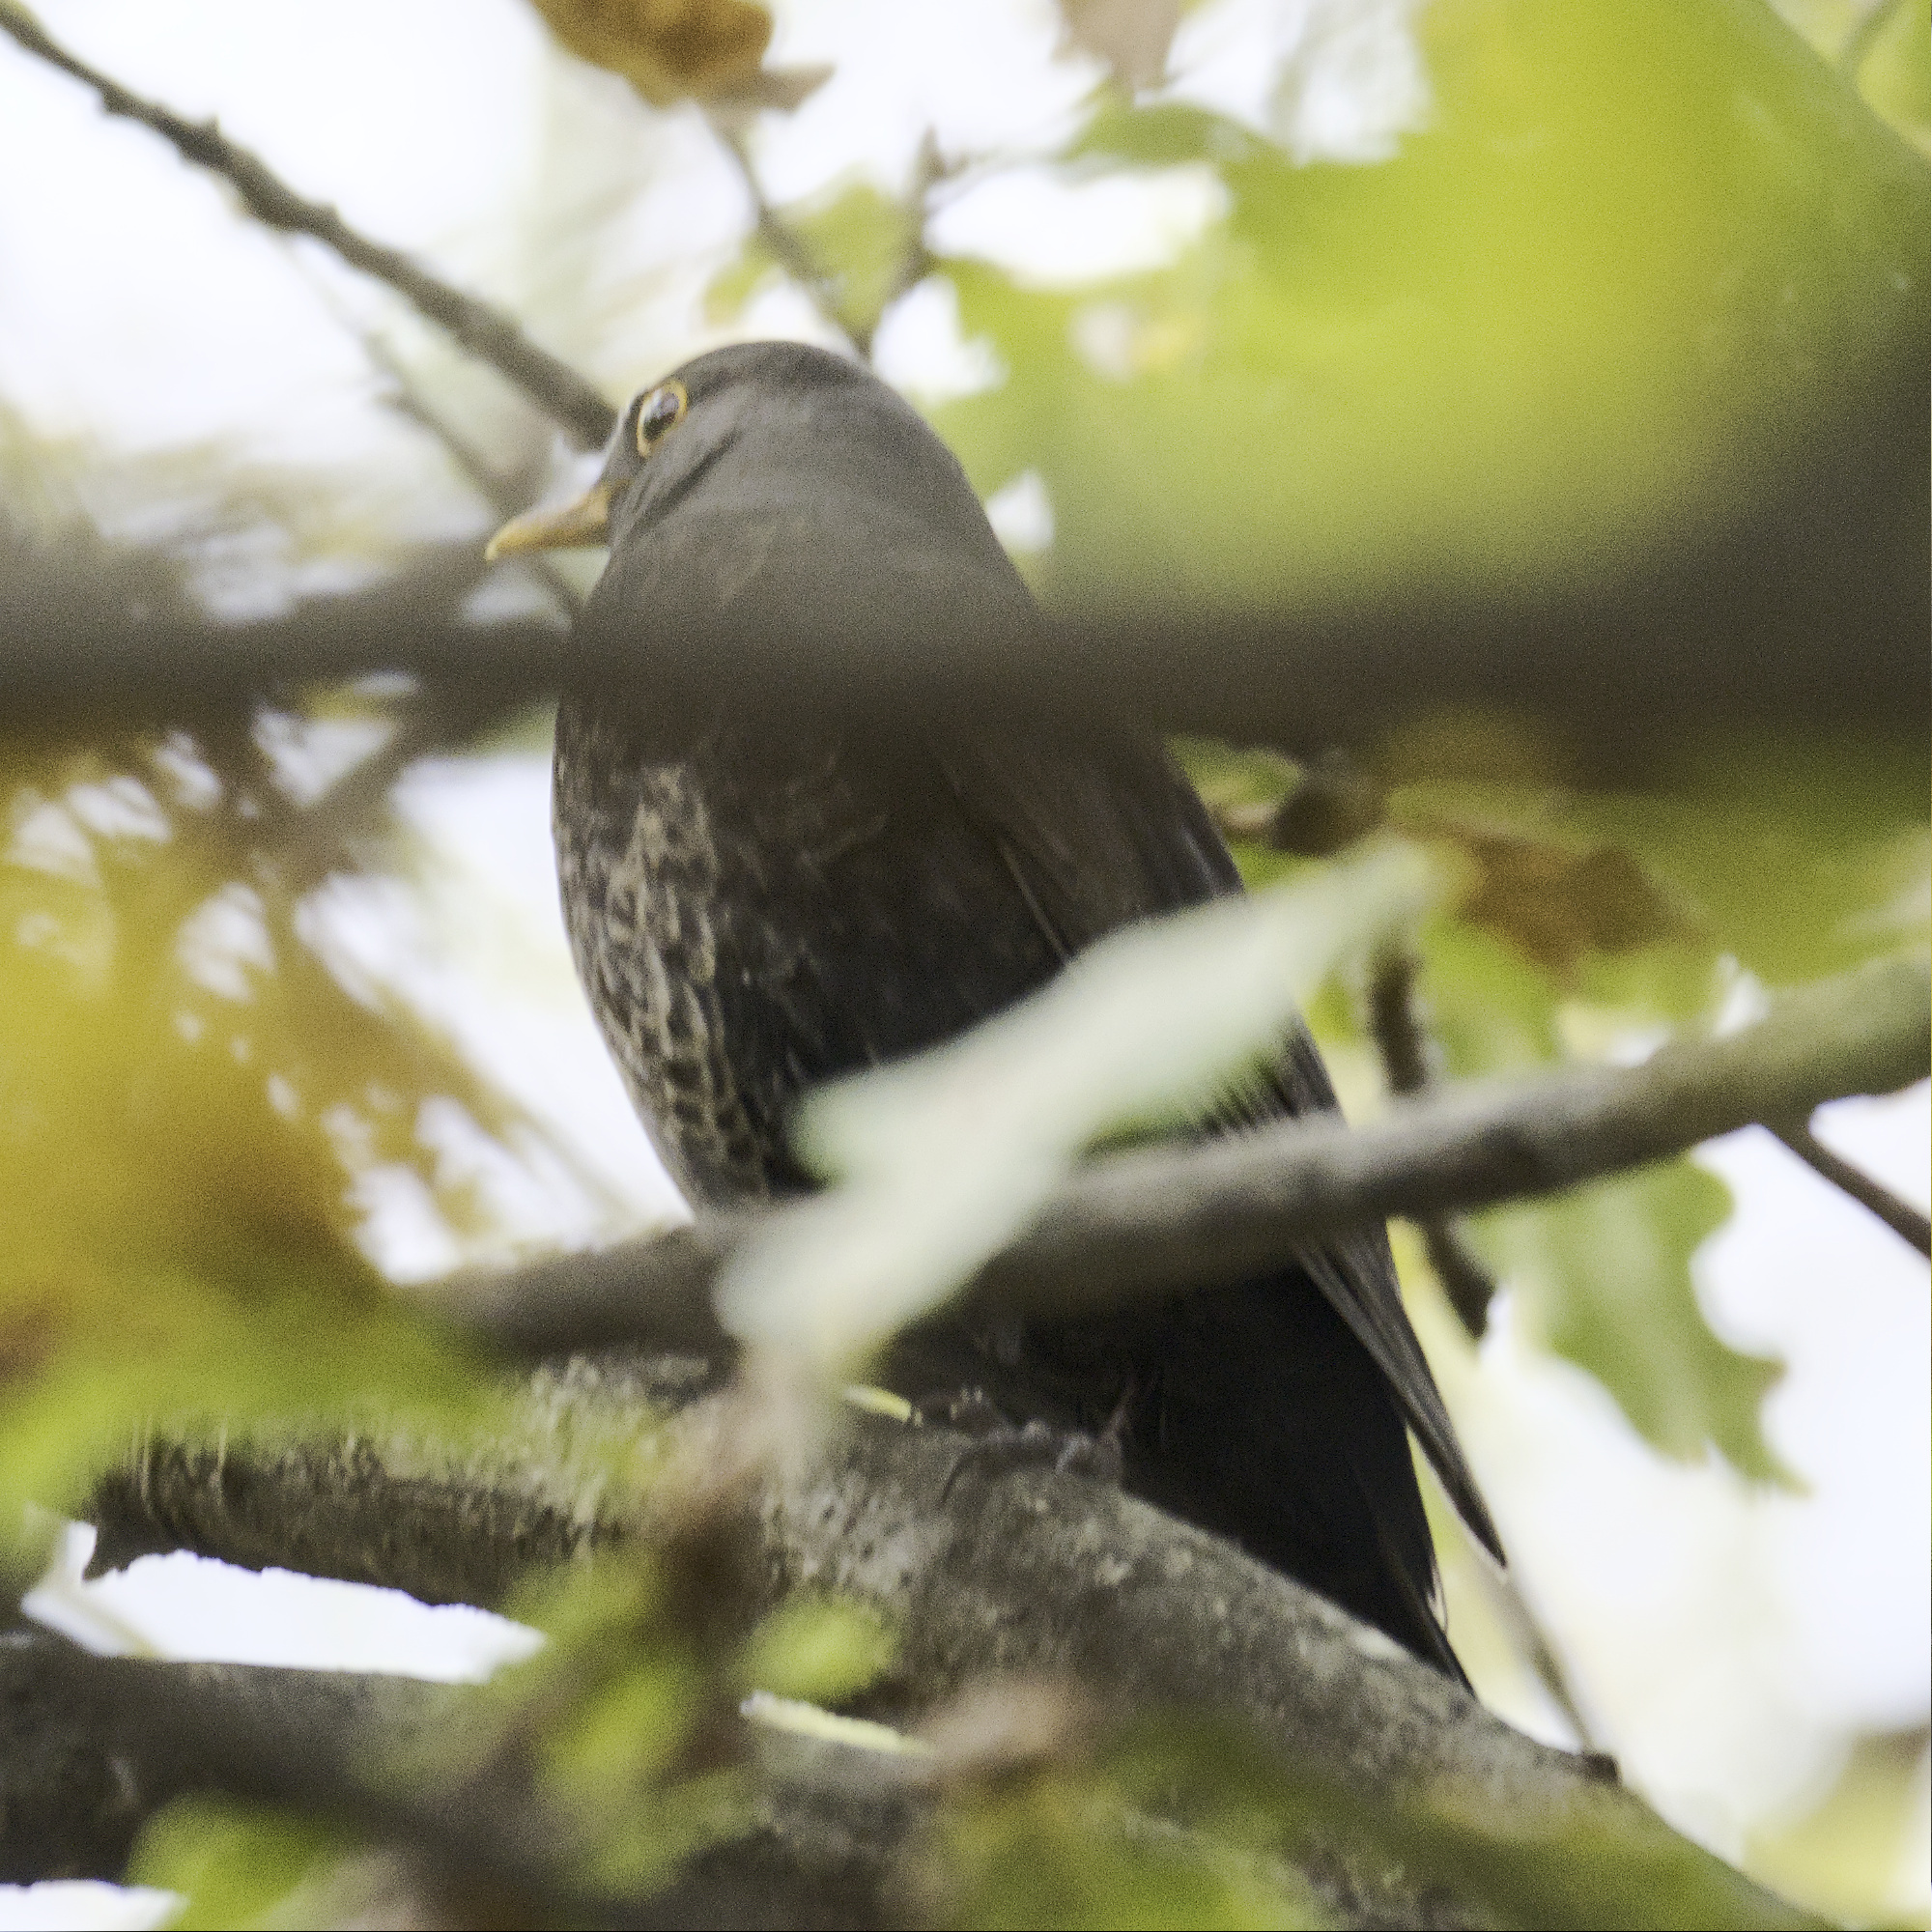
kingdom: Animalia
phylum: Chordata
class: Aves
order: Passeriformes
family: Turdidae
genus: Turdus
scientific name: Turdus merula
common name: Common blackbird
